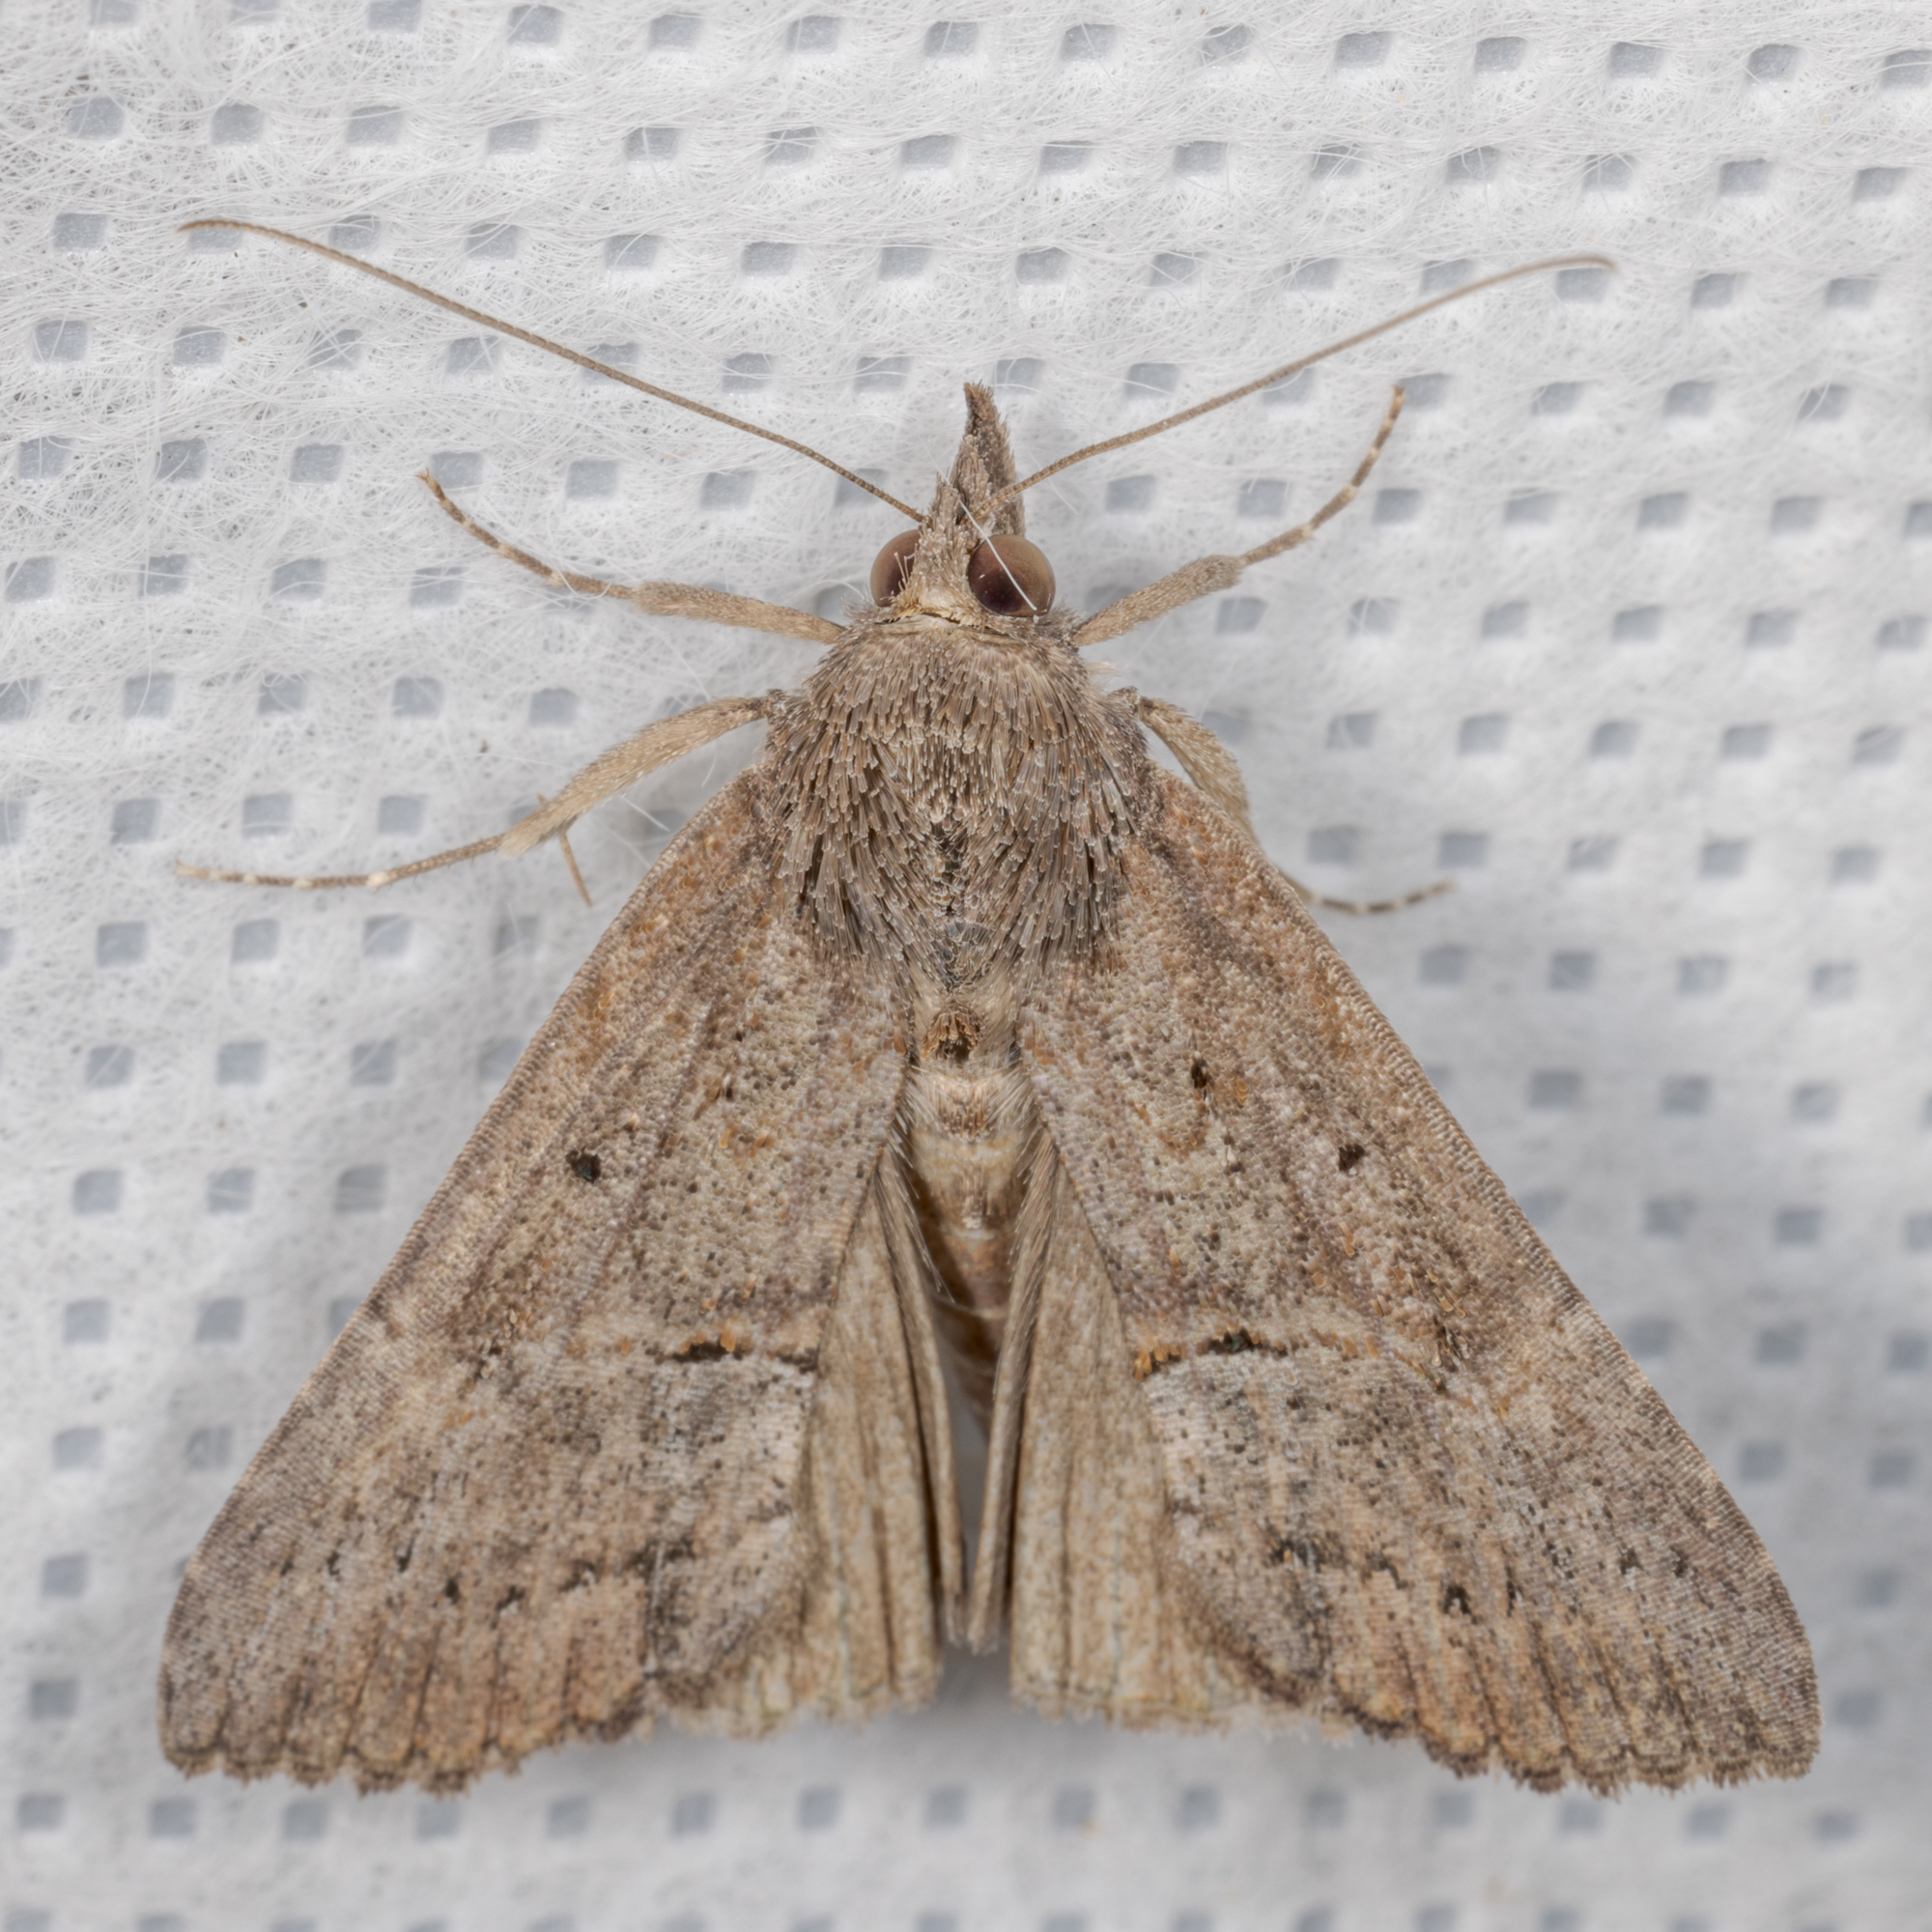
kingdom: Animalia
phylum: Arthropoda
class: Insecta
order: Lepidoptera
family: Erebidae
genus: Hypena
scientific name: Hypena scabra
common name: Green cloverworm
